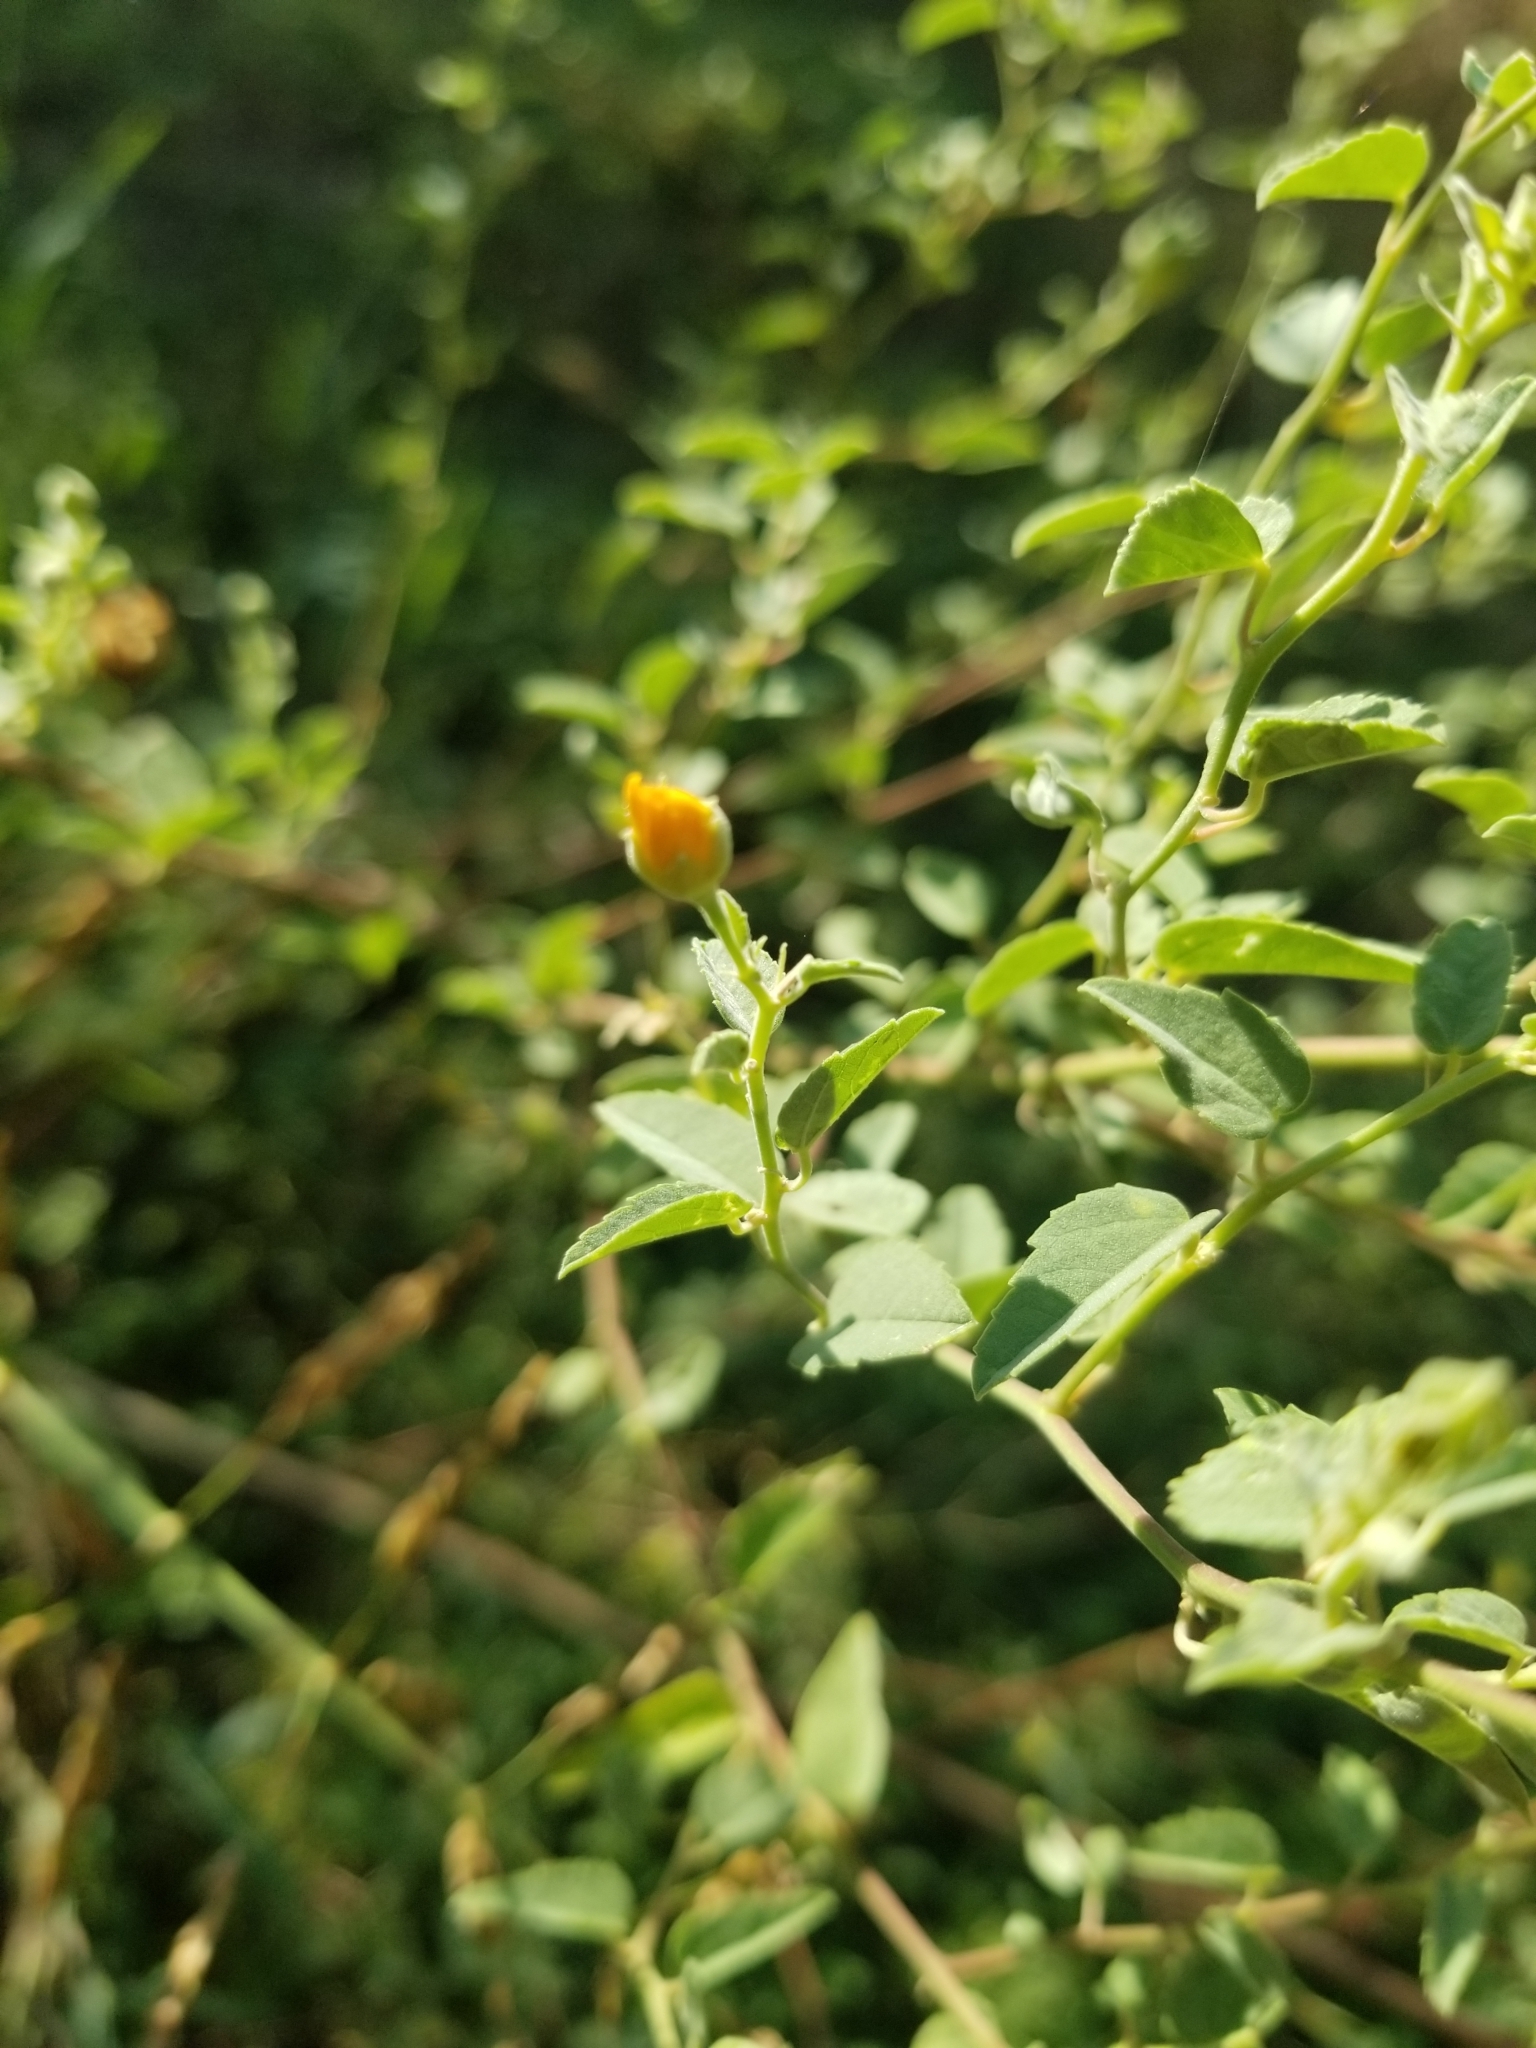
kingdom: Plantae
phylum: Tracheophyta
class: Magnoliopsida
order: Malvales
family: Malvaceae
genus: Abutilon
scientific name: Abutilon fruticosum
